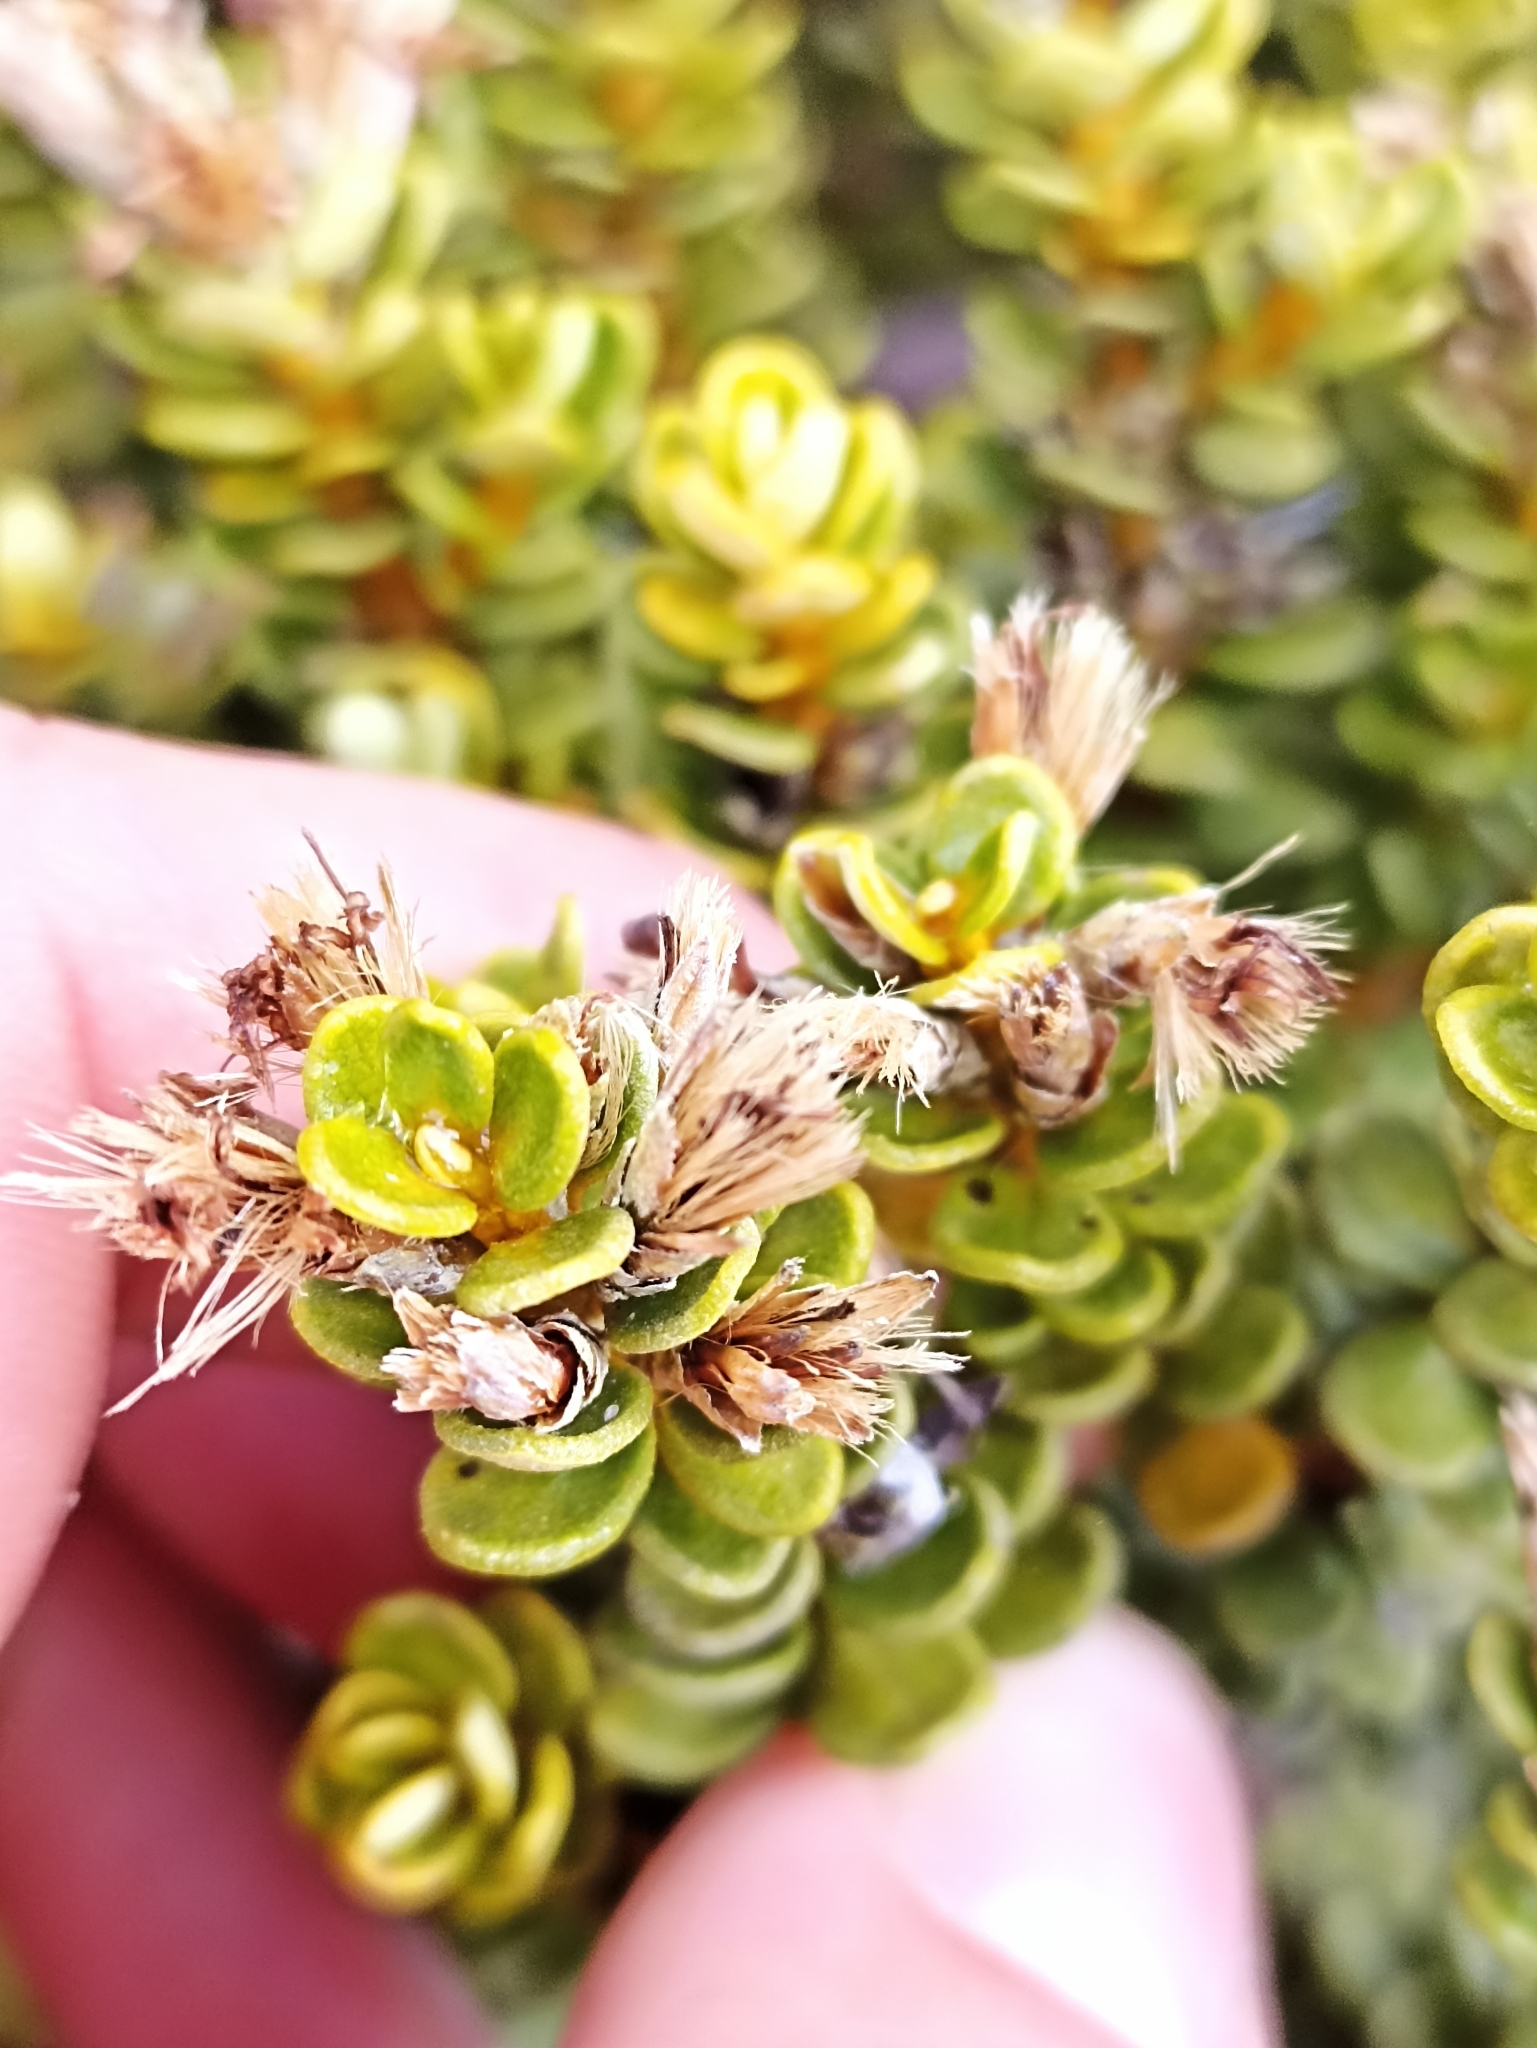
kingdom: Plantae
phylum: Tracheophyta
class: Magnoliopsida
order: Asterales
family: Asteraceae
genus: Olearia
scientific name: Olearia nummularifolia
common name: Sticky daisybush
